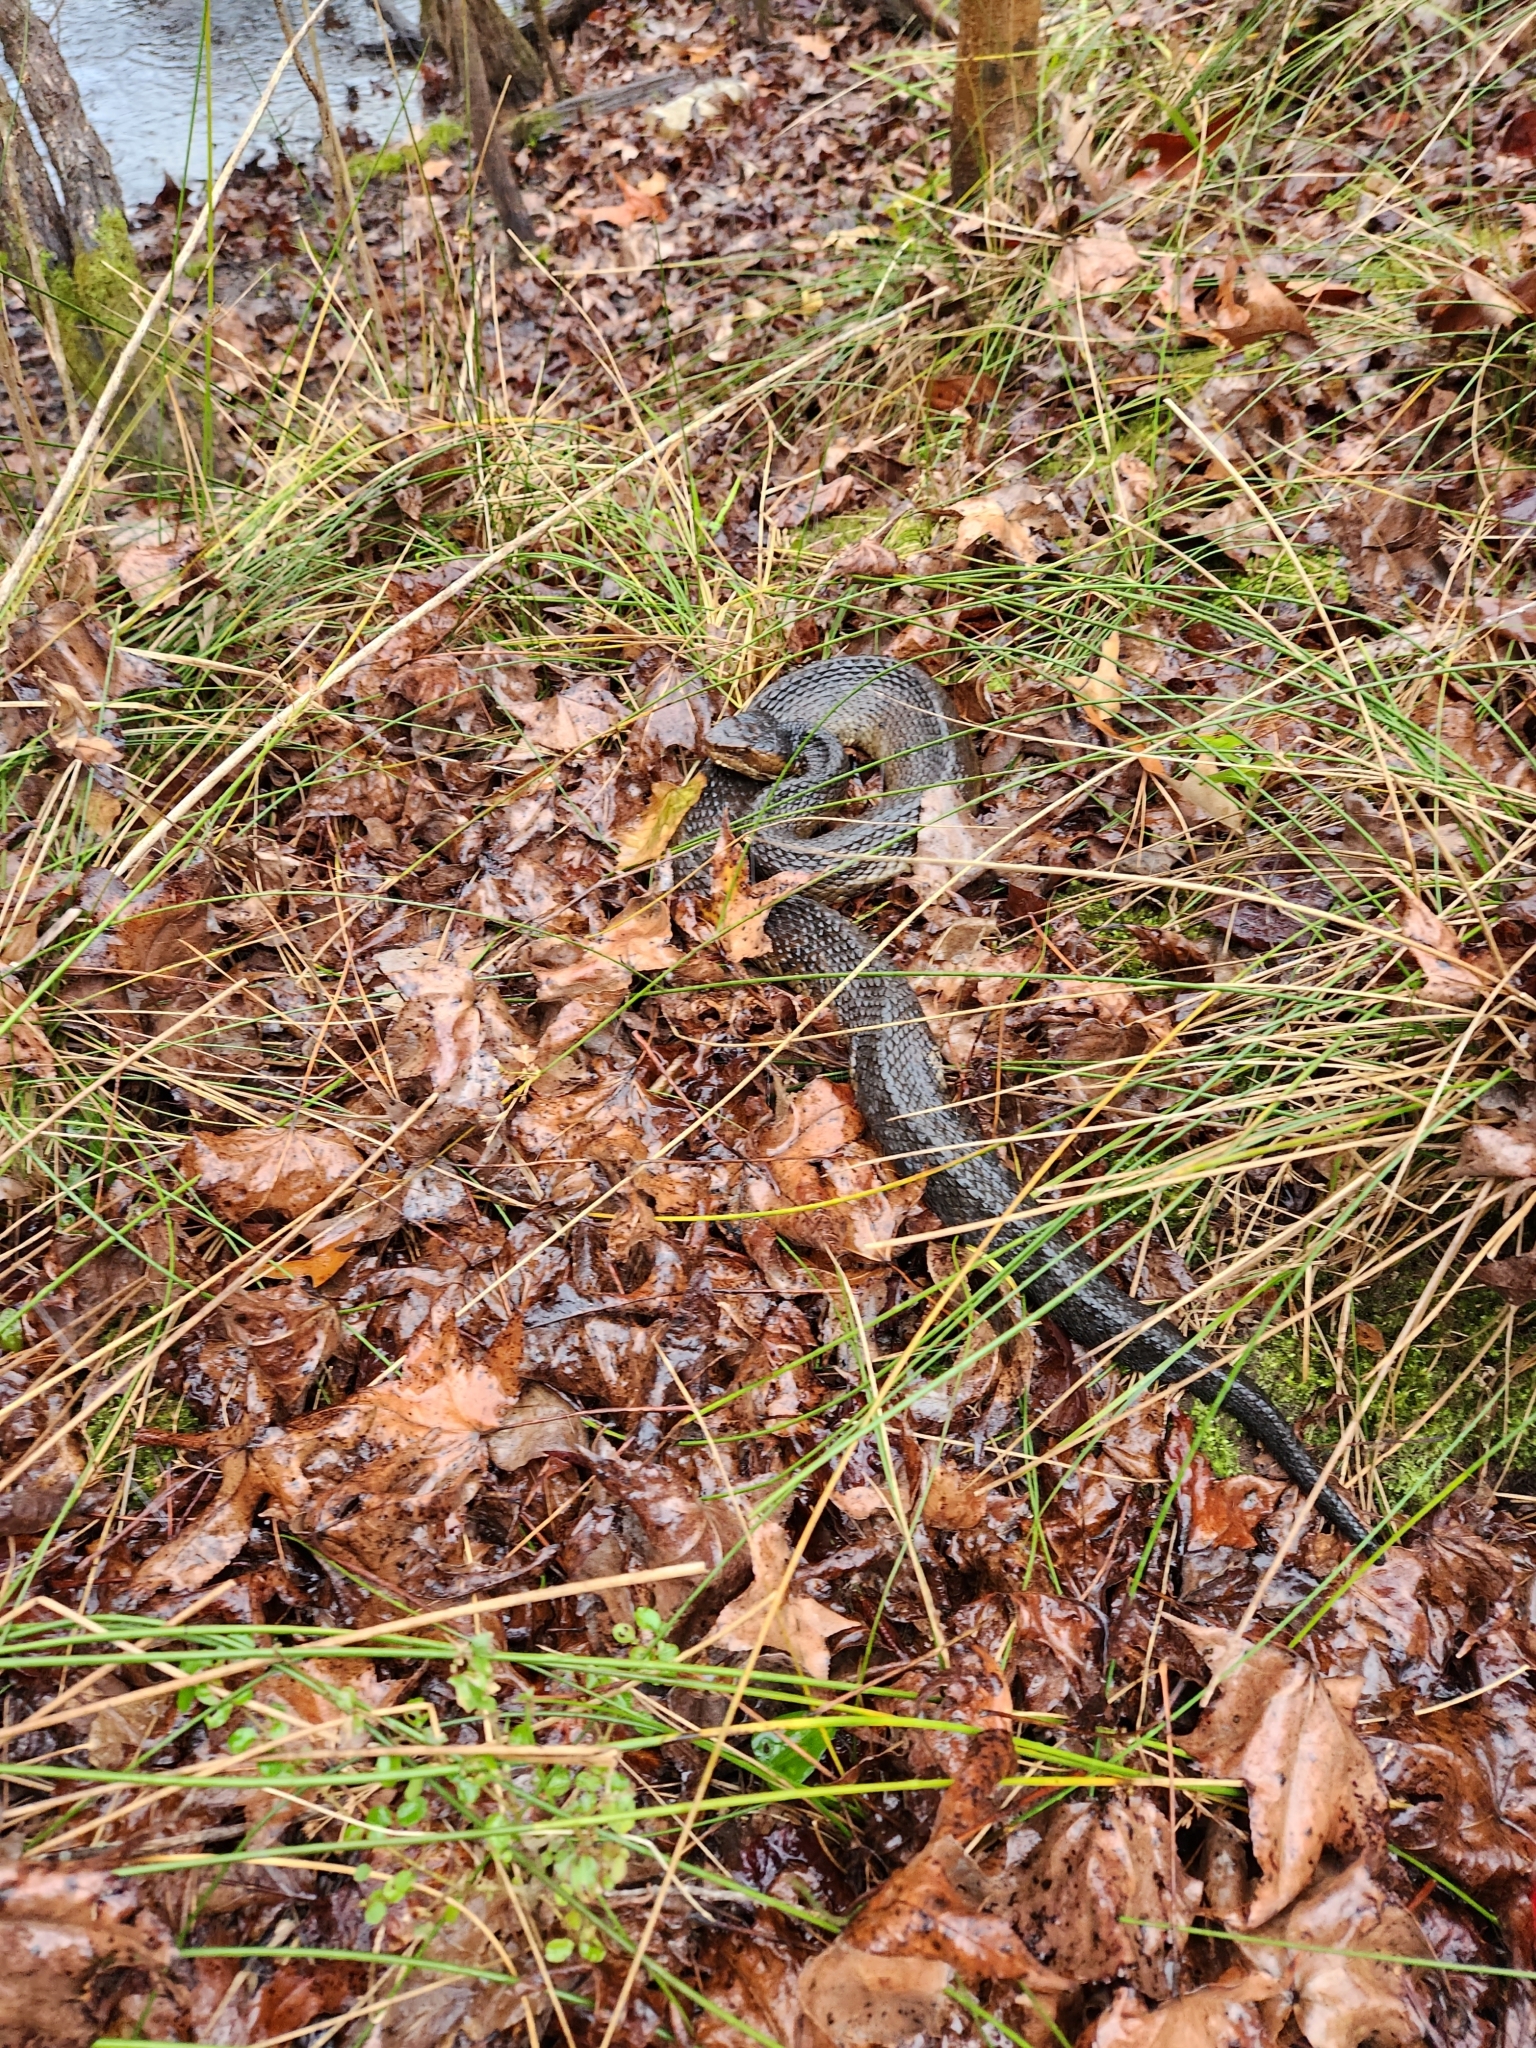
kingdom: Animalia
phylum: Chordata
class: Squamata
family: Viperidae
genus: Agkistrodon
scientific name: Agkistrodon piscivorus
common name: Cottonmouth
